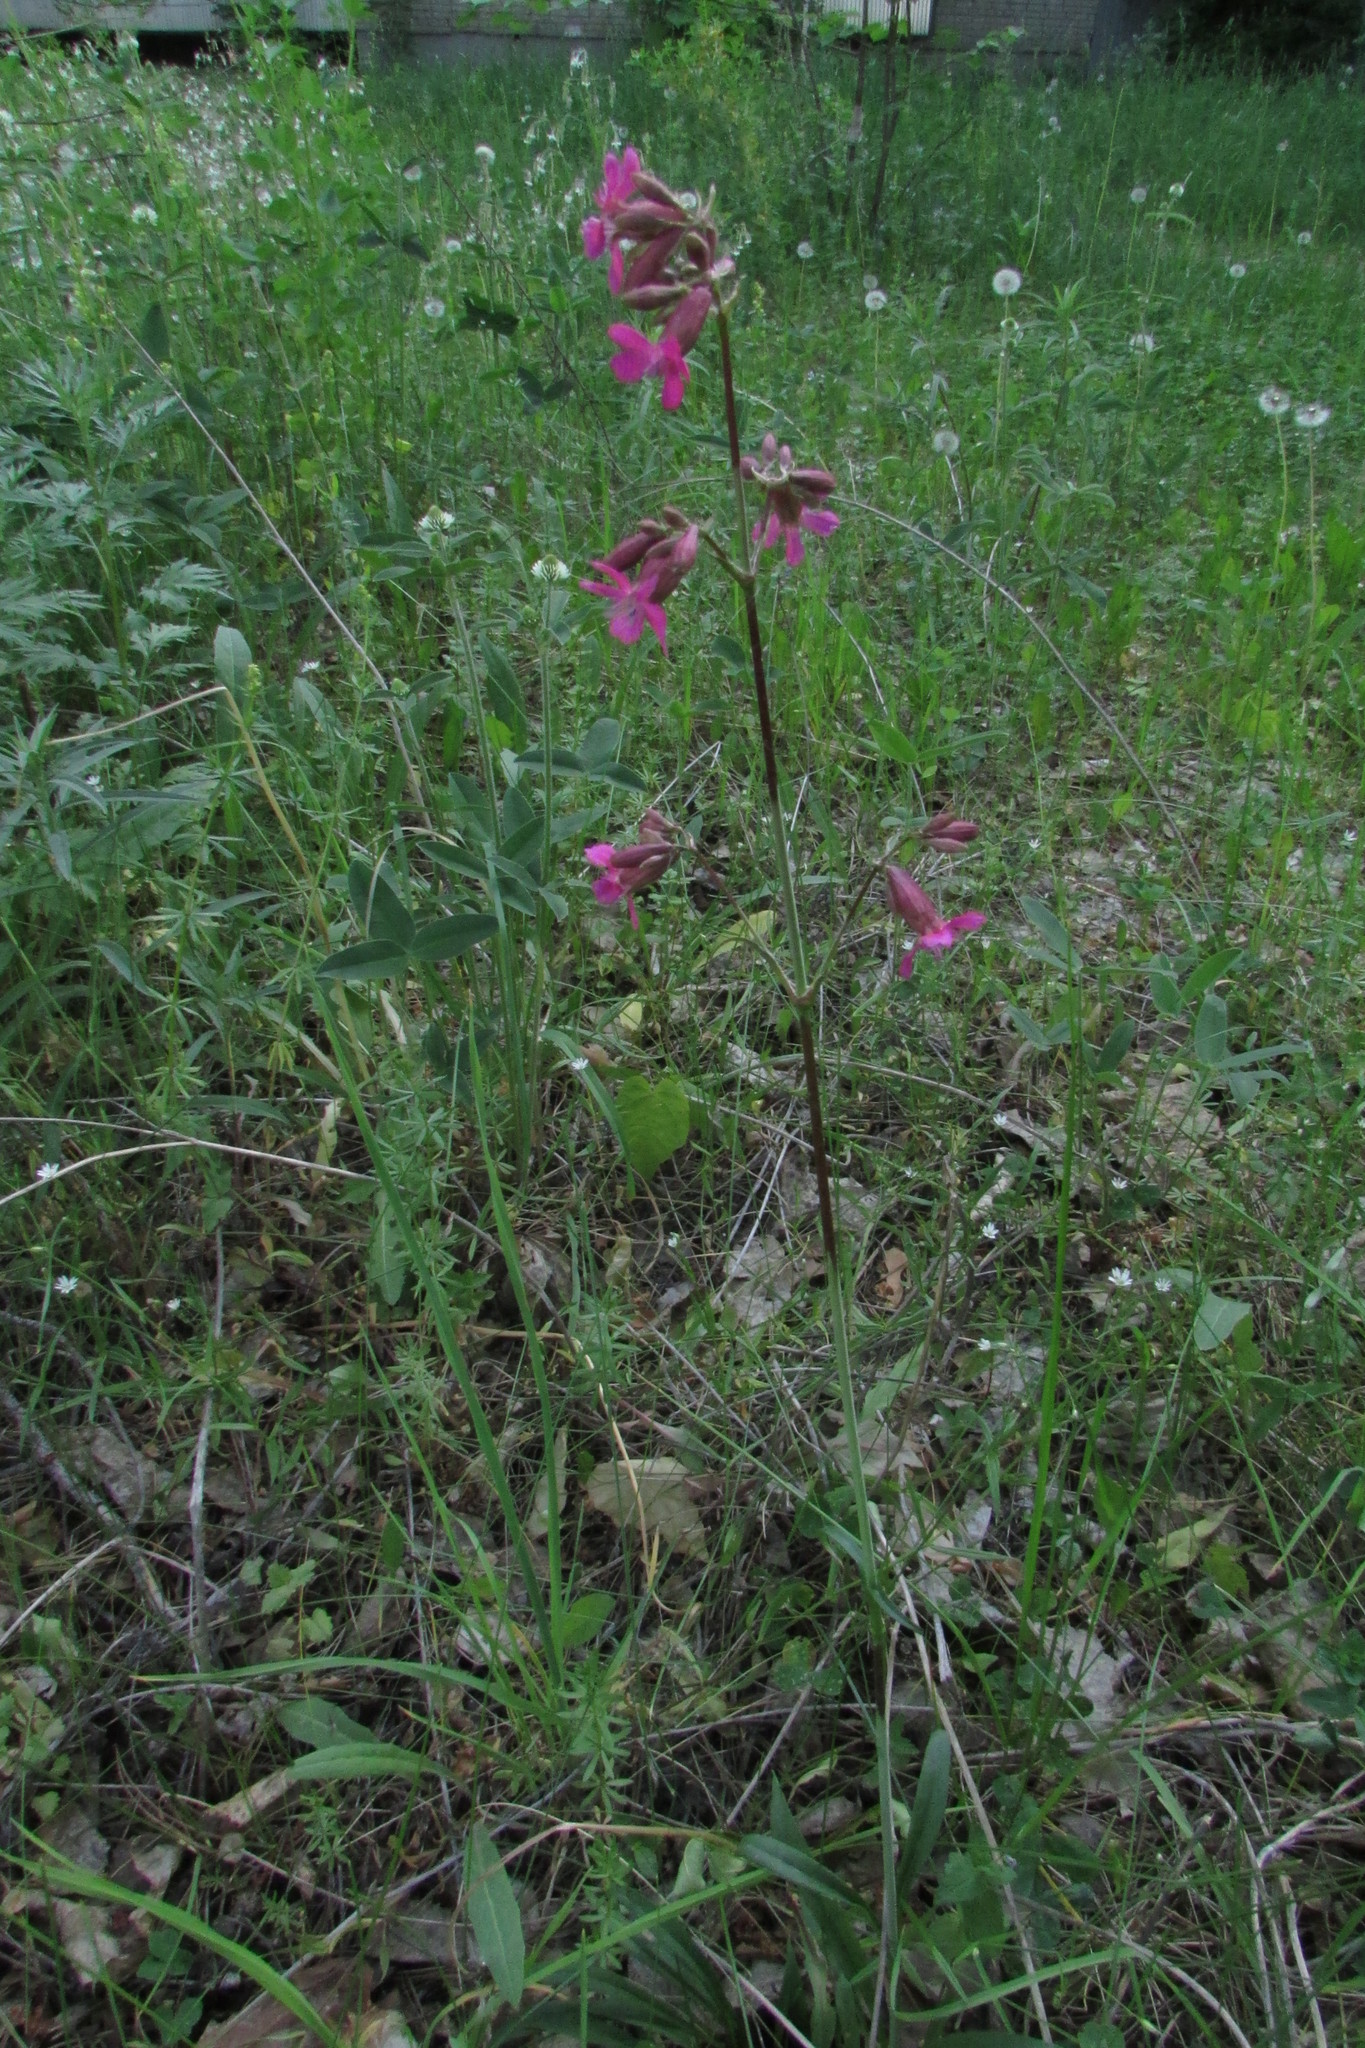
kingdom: Plantae
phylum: Tracheophyta
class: Magnoliopsida
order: Caryophyllales
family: Caryophyllaceae
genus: Viscaria
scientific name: Viscaria vulgaris
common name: Clammy campion
